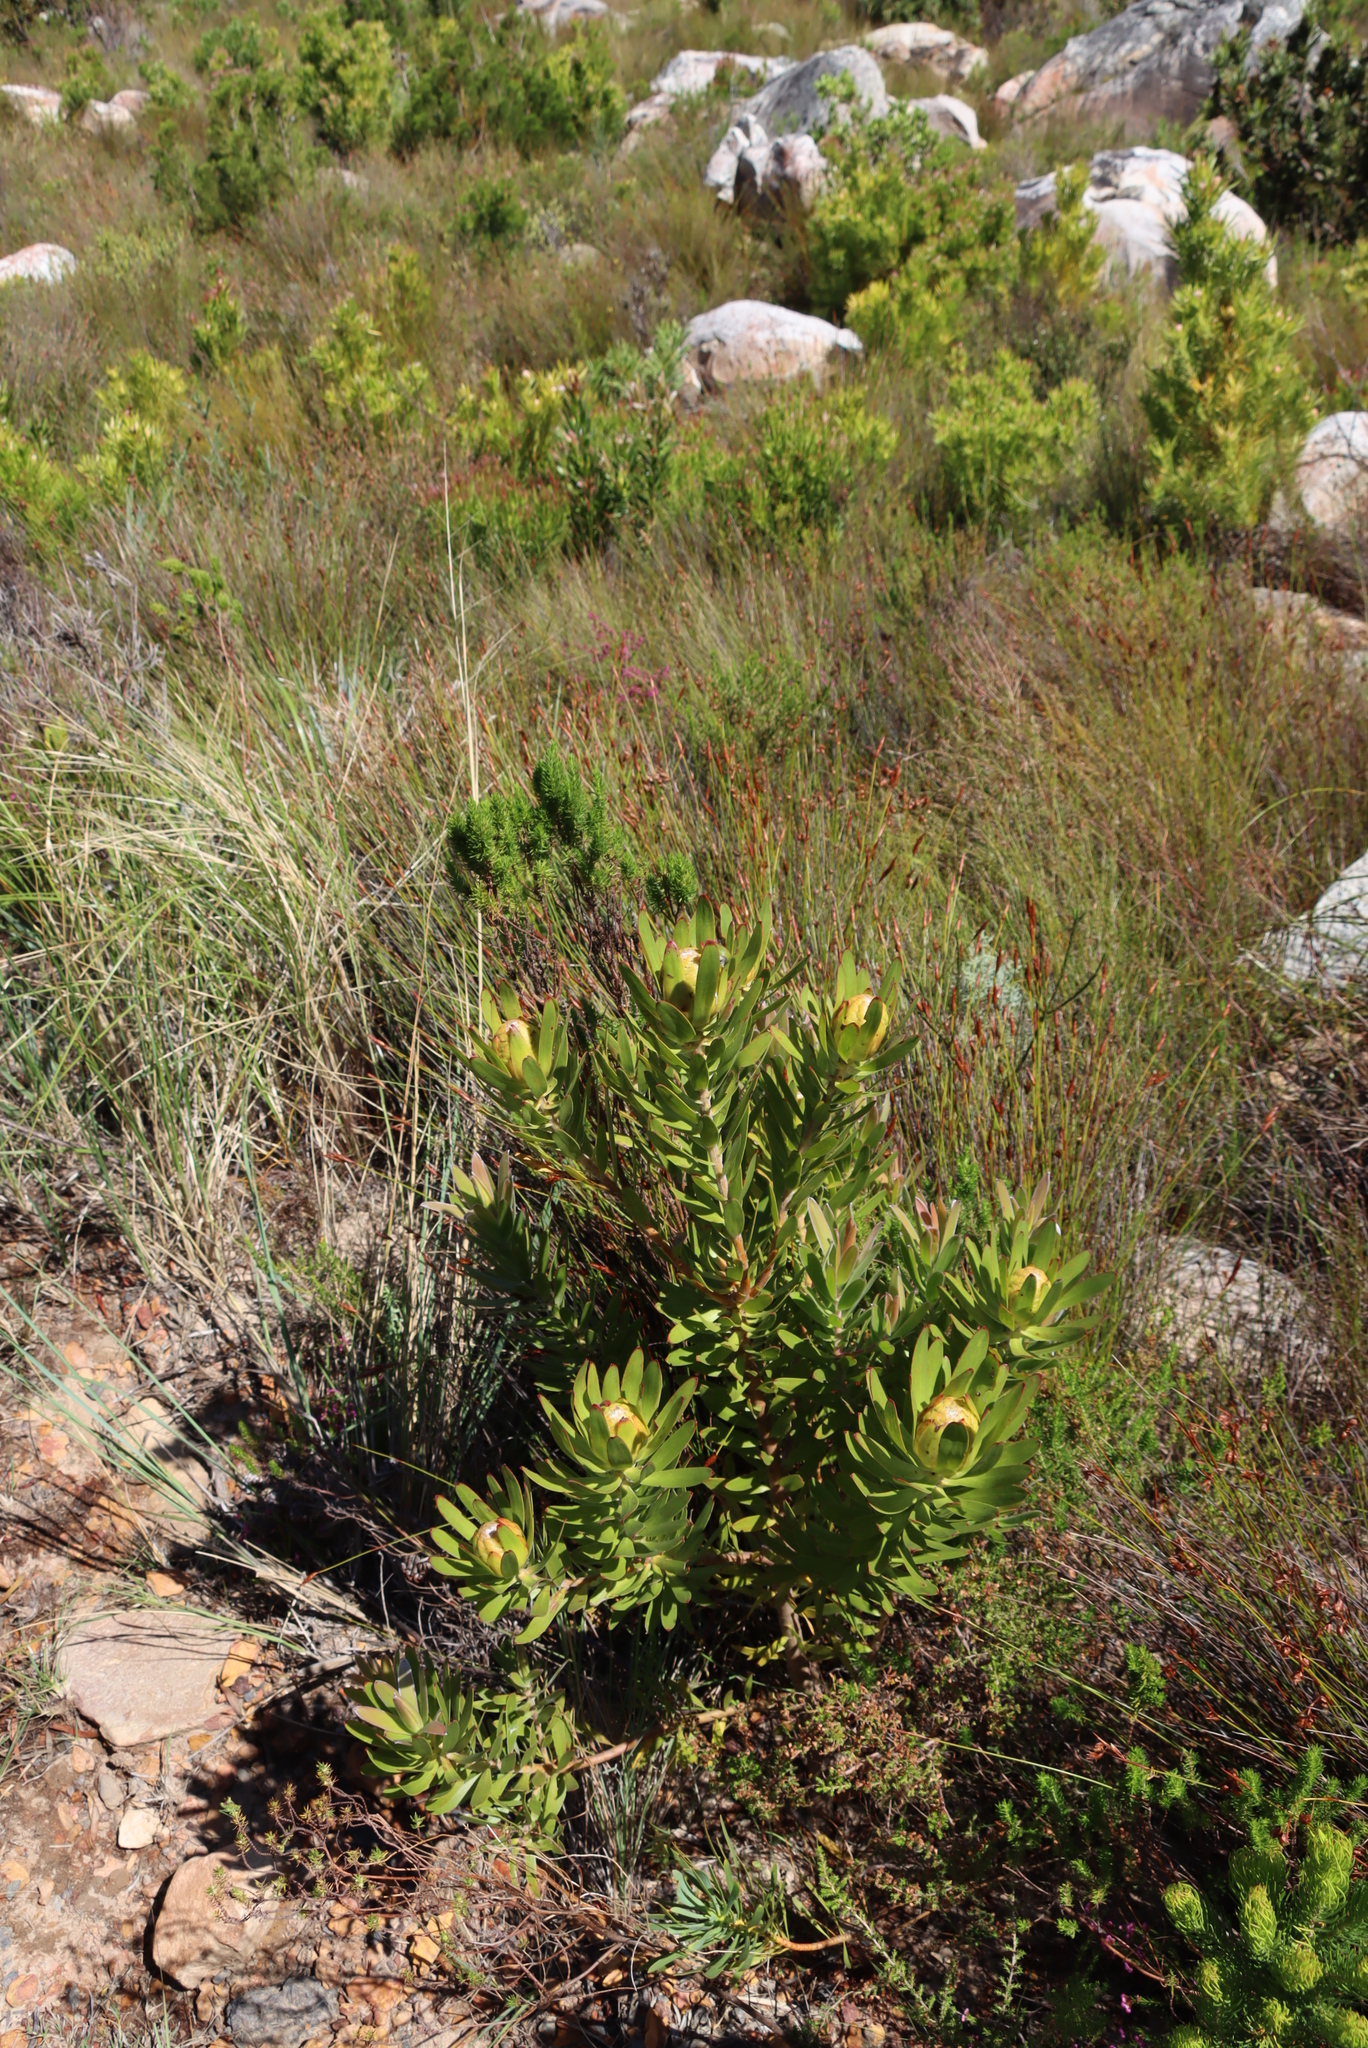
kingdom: Plantae
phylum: Tracheophyta
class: Magnoliopsida
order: Proteales
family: Proteaceae
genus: Leucadendron
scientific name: Leucadendron laureolum
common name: Golden sunshinebush
